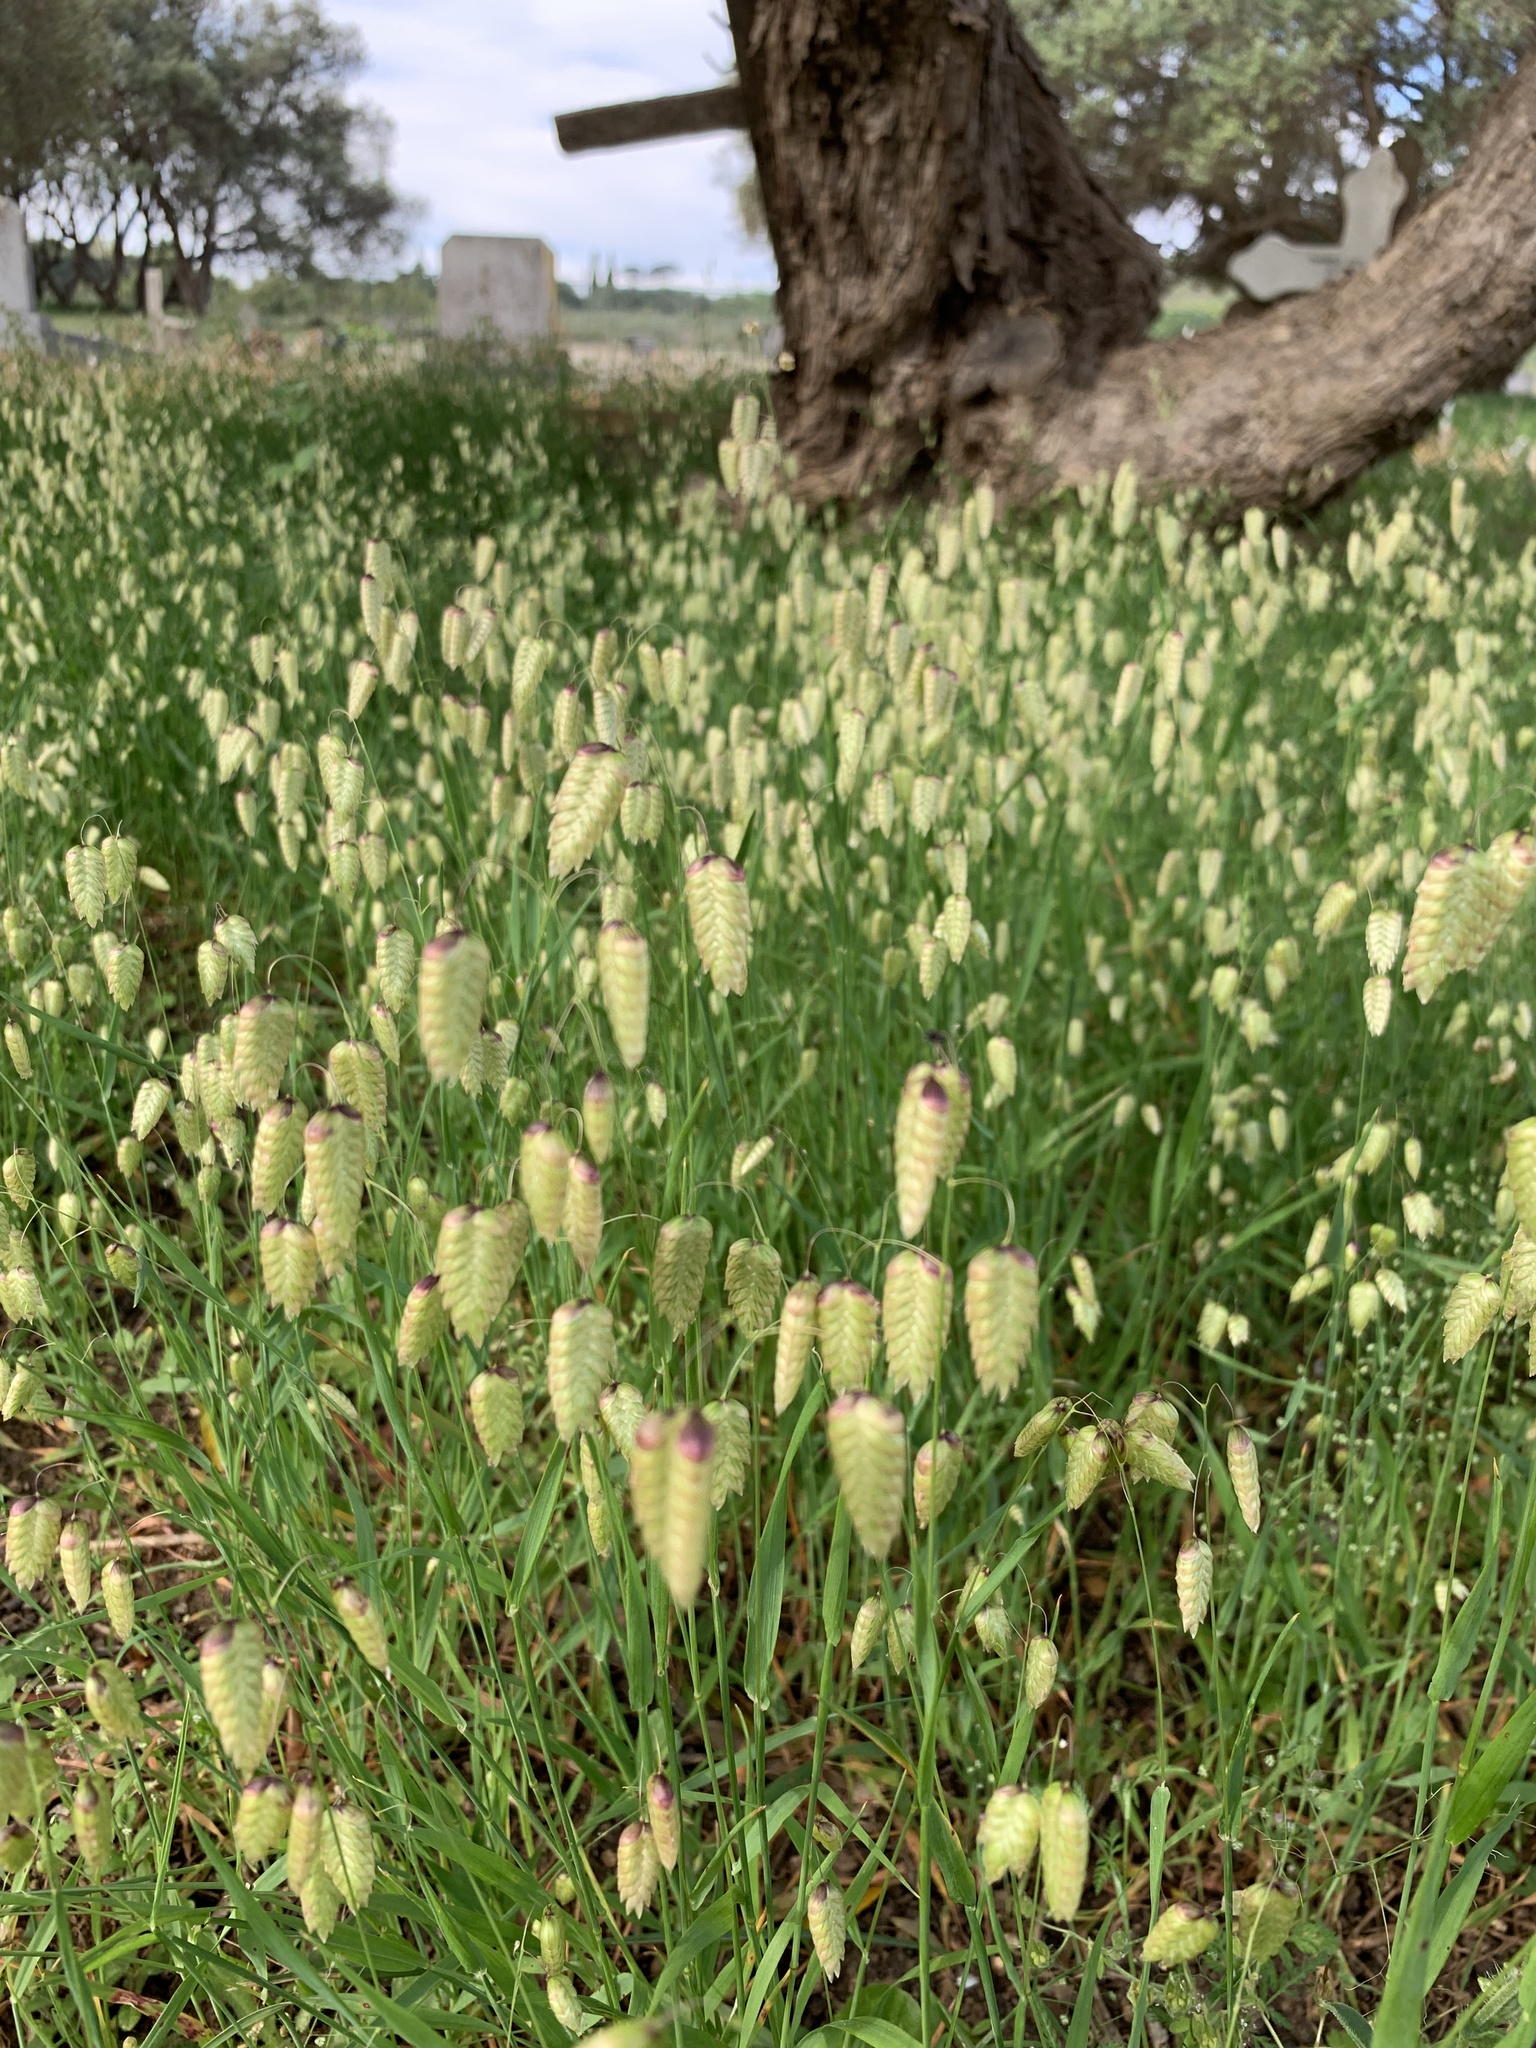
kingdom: Plantae
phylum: Tracheophyta
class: Liliopsida
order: Poales
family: Poaceae
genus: Briza
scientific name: Briza maxima
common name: Big quakinggrass
